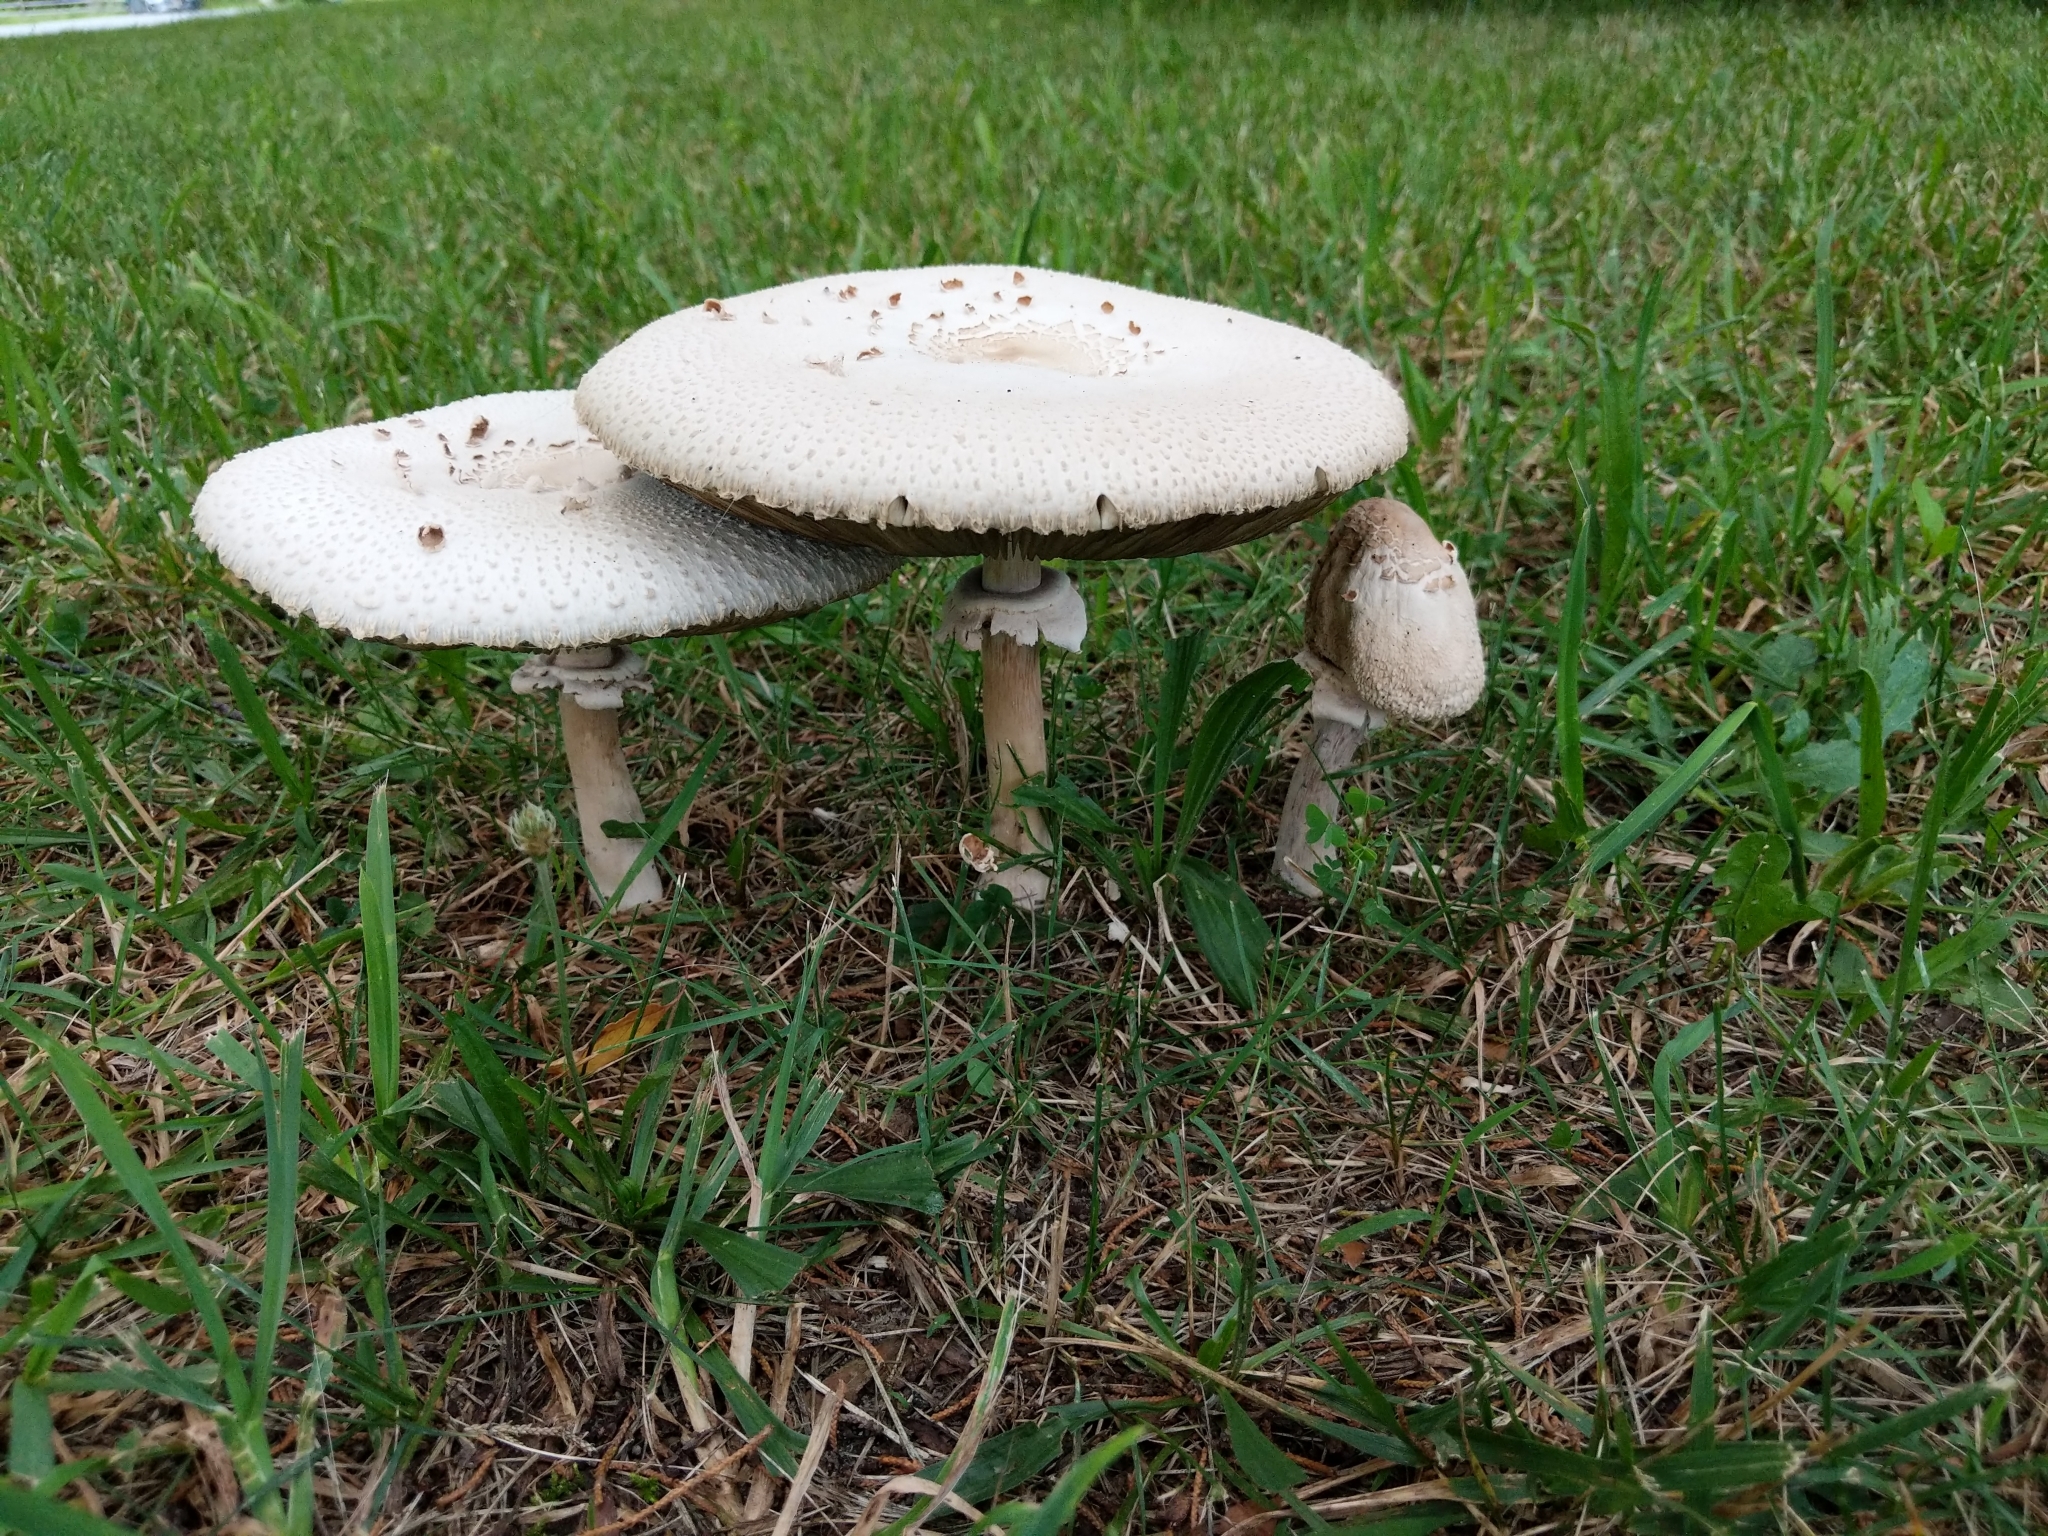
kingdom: Fungi
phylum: Basidiomycota
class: Agaricomycetes
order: Agaricales
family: Agaricaceae
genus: Chlorophyllum
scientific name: Chlorophyllum molybdites
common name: False parasol
